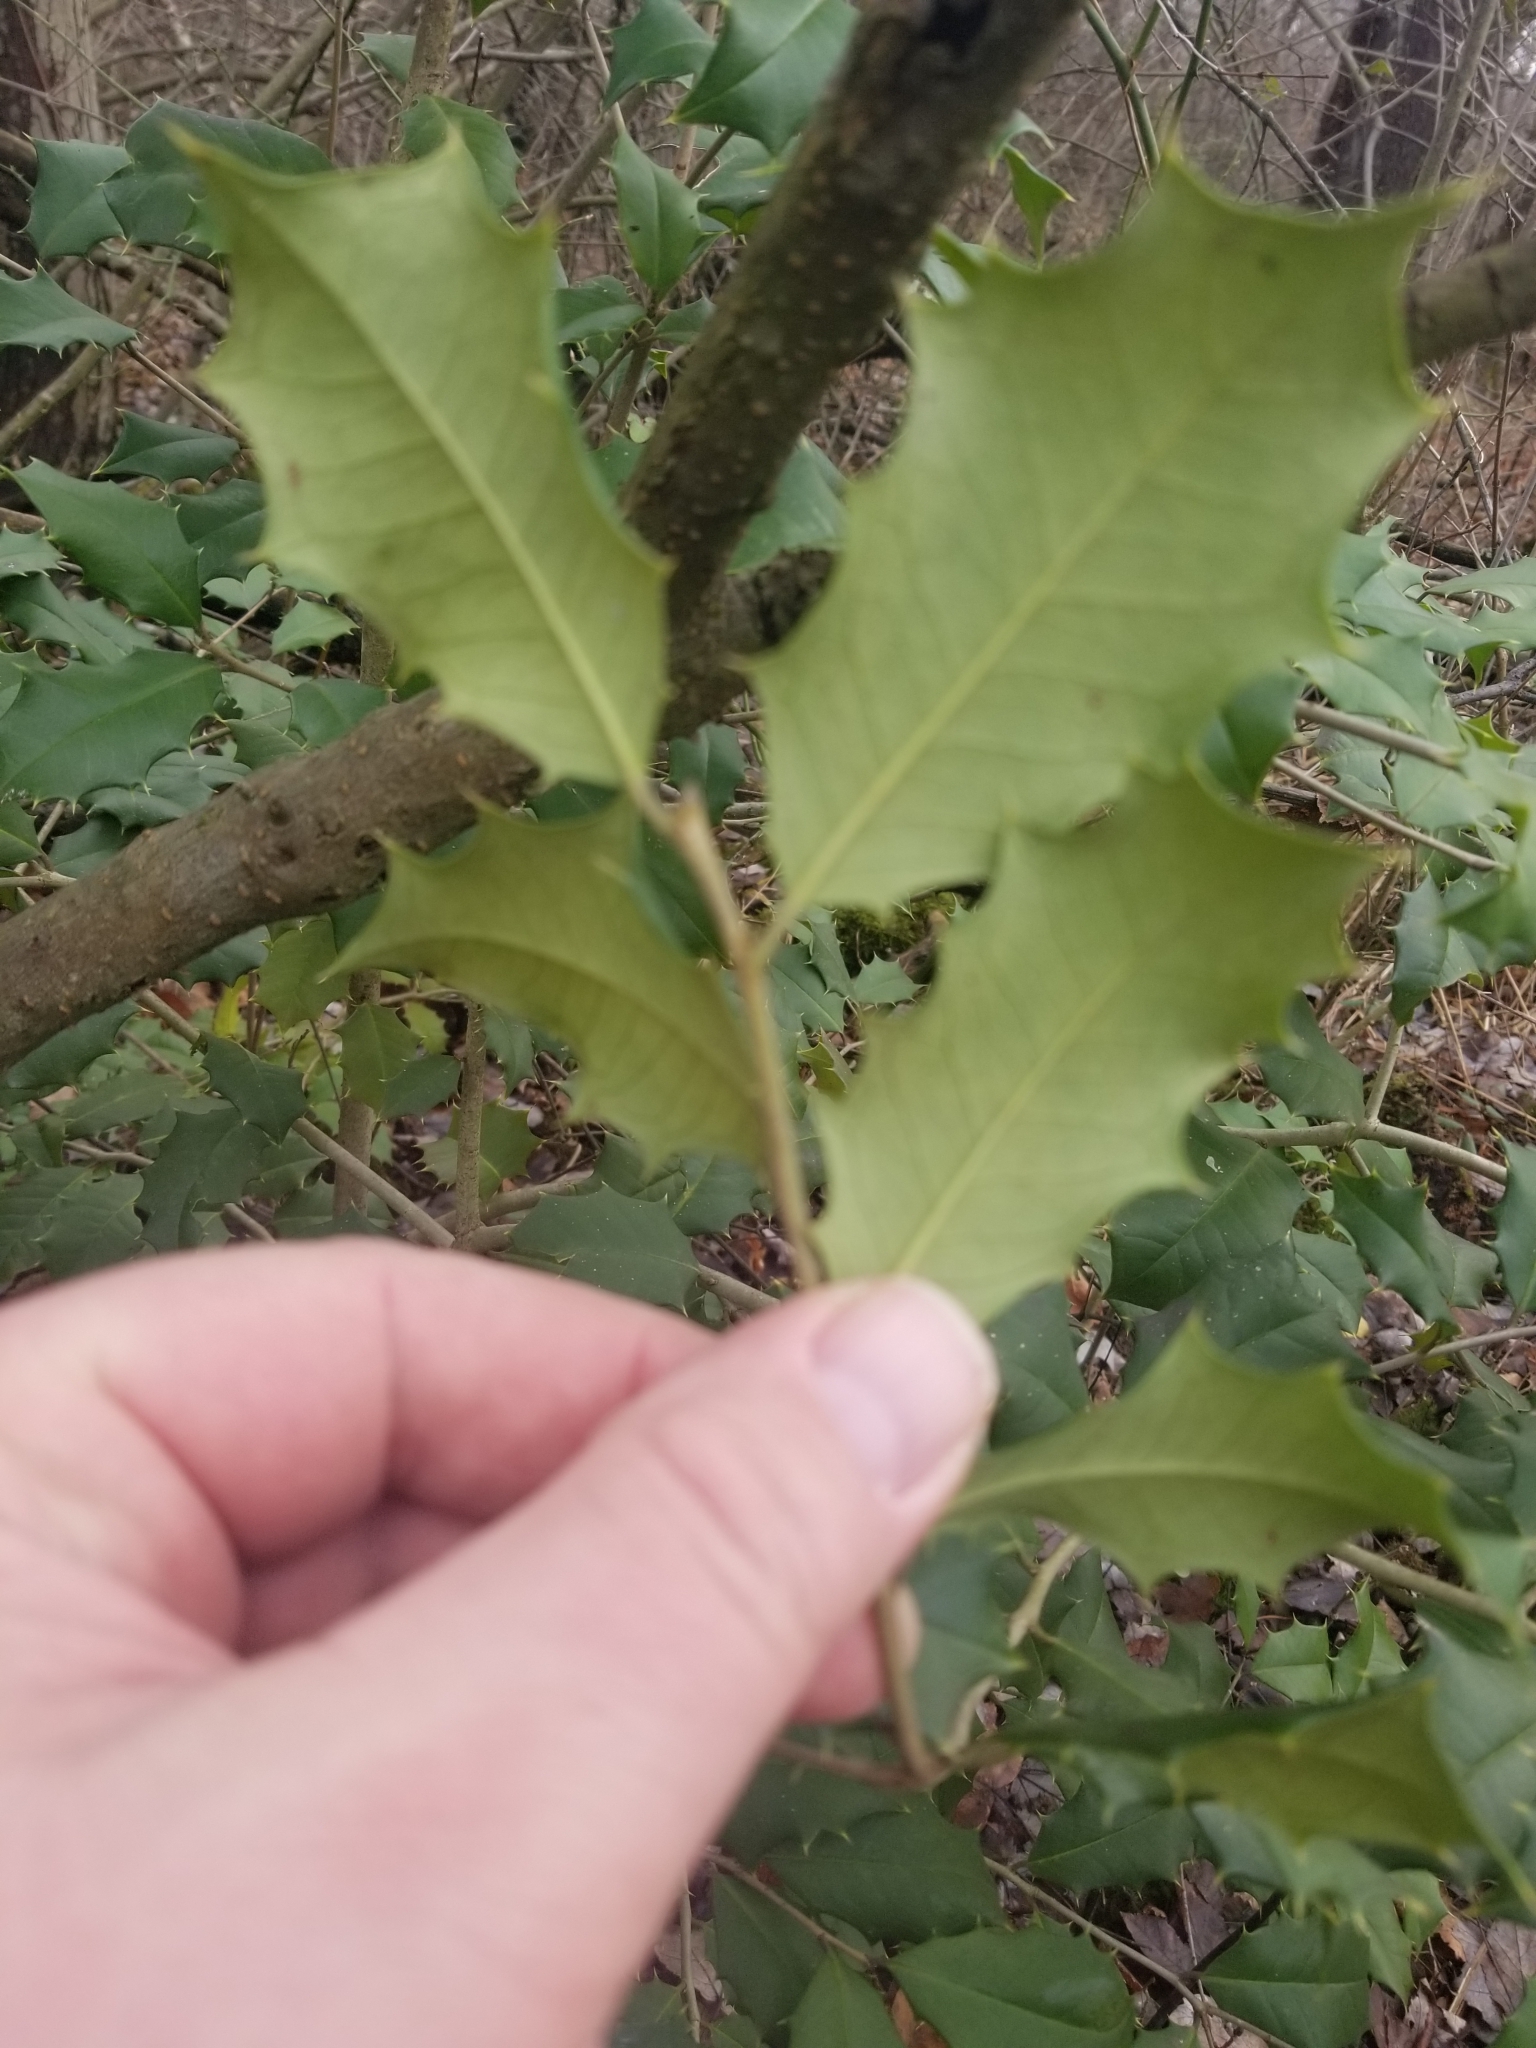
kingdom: Plantae
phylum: Tracheophyta
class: Magnoliopsida
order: Aquifoliales
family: Aquifoliaceae
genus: Ilex
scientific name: Ilex opaca
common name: American holly
